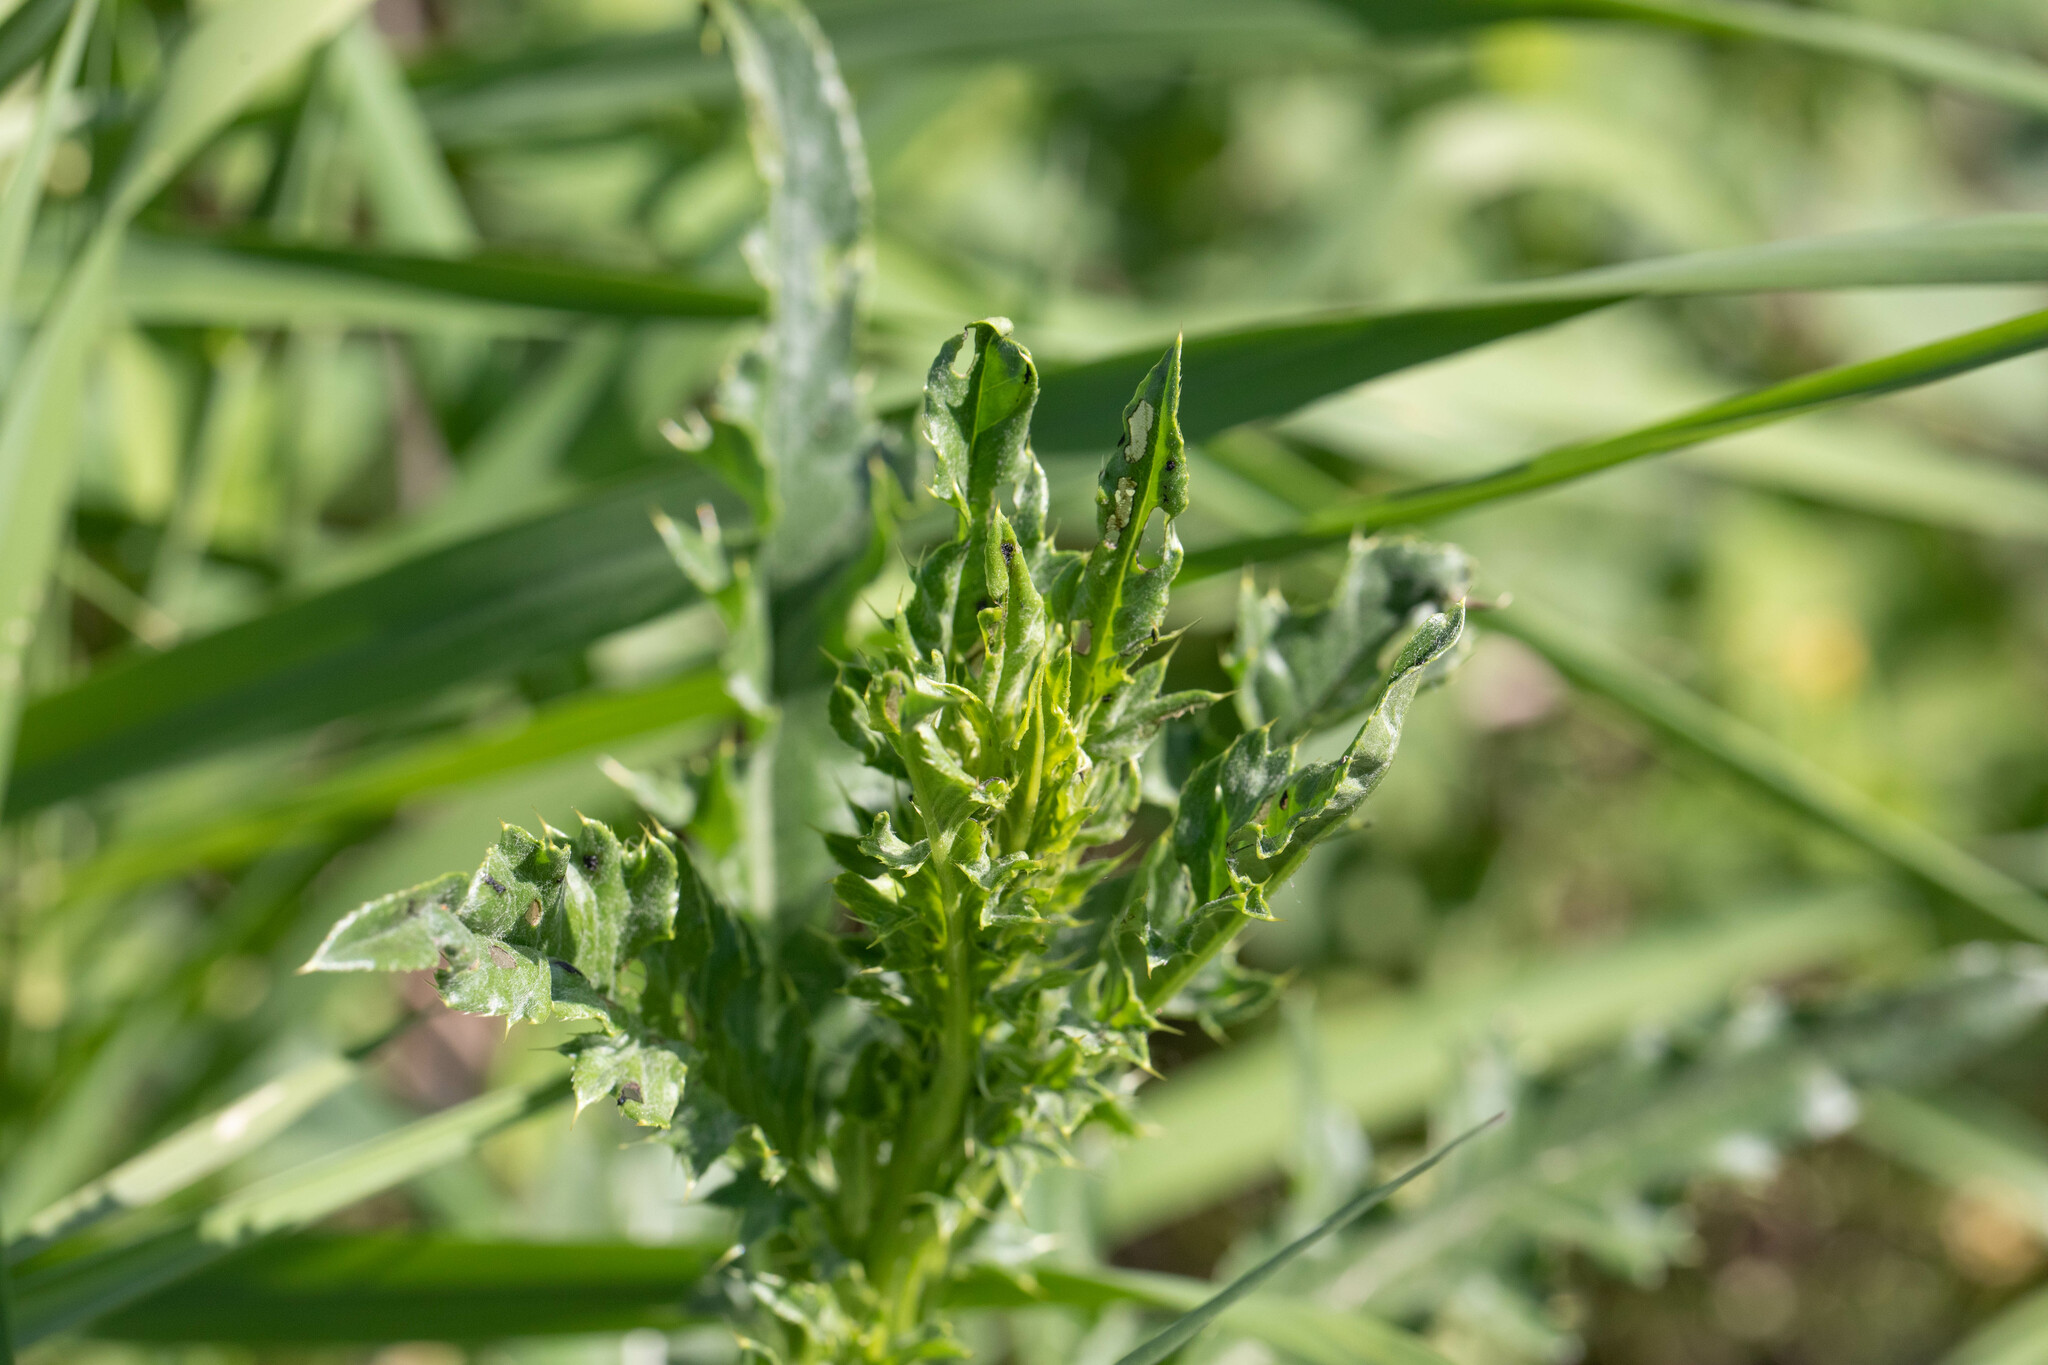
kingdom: Plantae
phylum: Tracheophyta
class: Magnoliopsida
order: Asterales
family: Asteraceae
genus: Cirsium
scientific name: Cirsium arvense
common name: Creeping thistle
